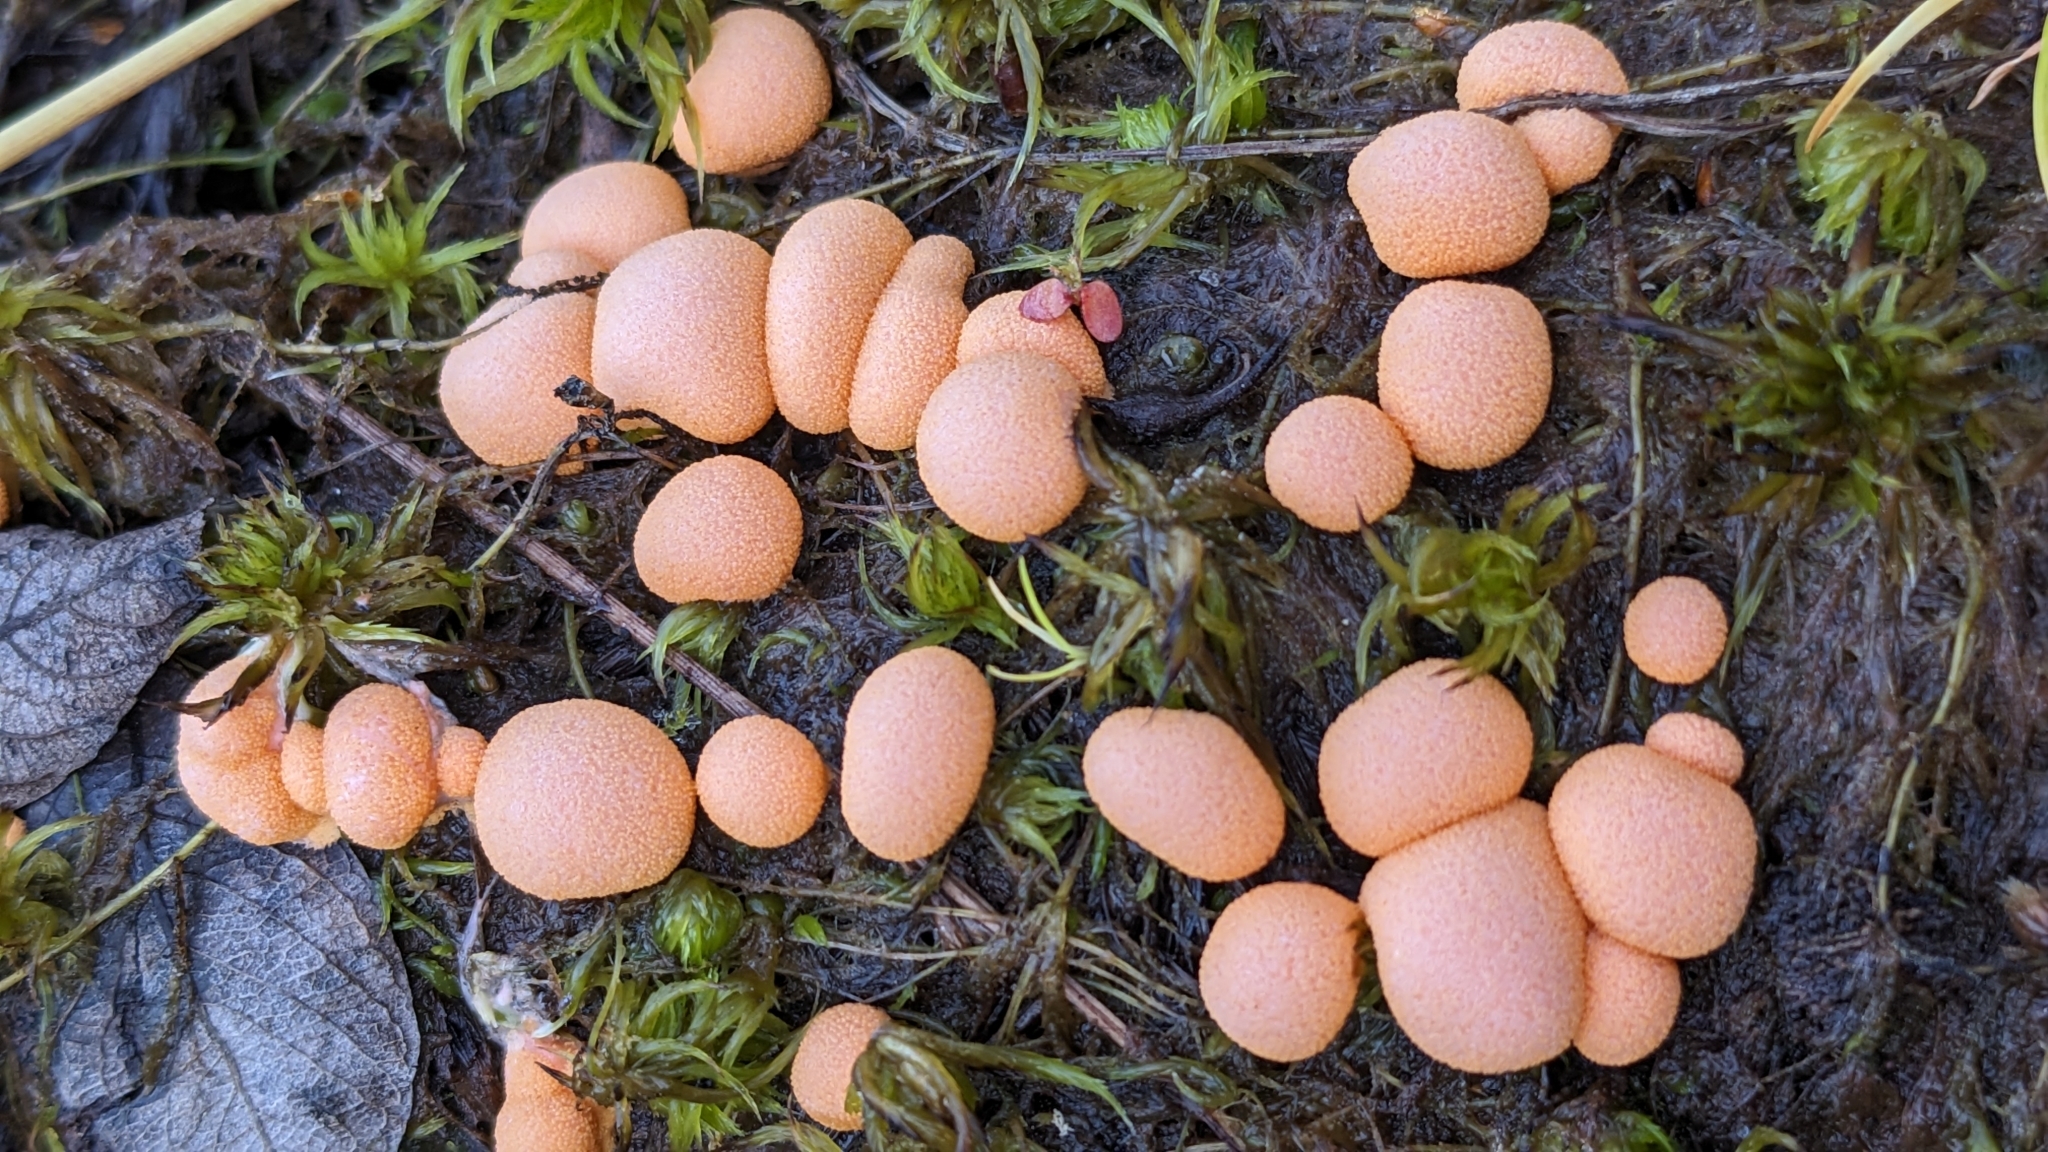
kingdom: Protozoa
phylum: Mycetozoa
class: Myxomycetes
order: Cribrariales
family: Tubiferaceae
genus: Lycogala
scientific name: Lycogala epidendrum
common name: Wolf's milk
